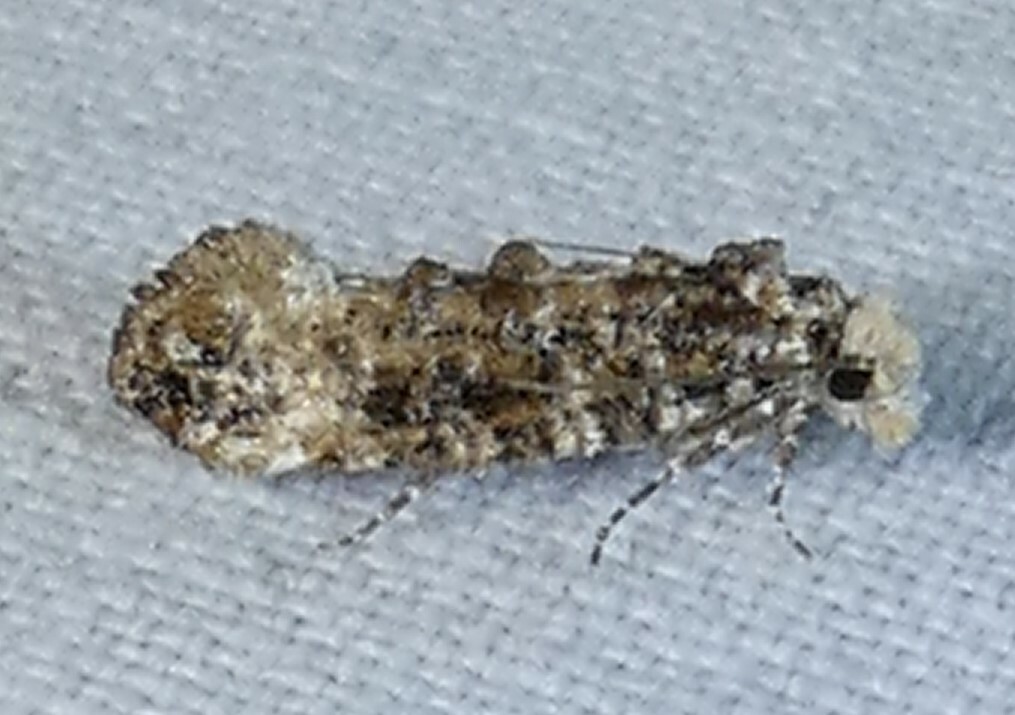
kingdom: Animalia
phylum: Arthropoda
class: Insecta
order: Lepidoptera
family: Tineidae
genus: Xylesthia
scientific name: Xylesthia pruniramiella
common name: Clemens' bark moth
